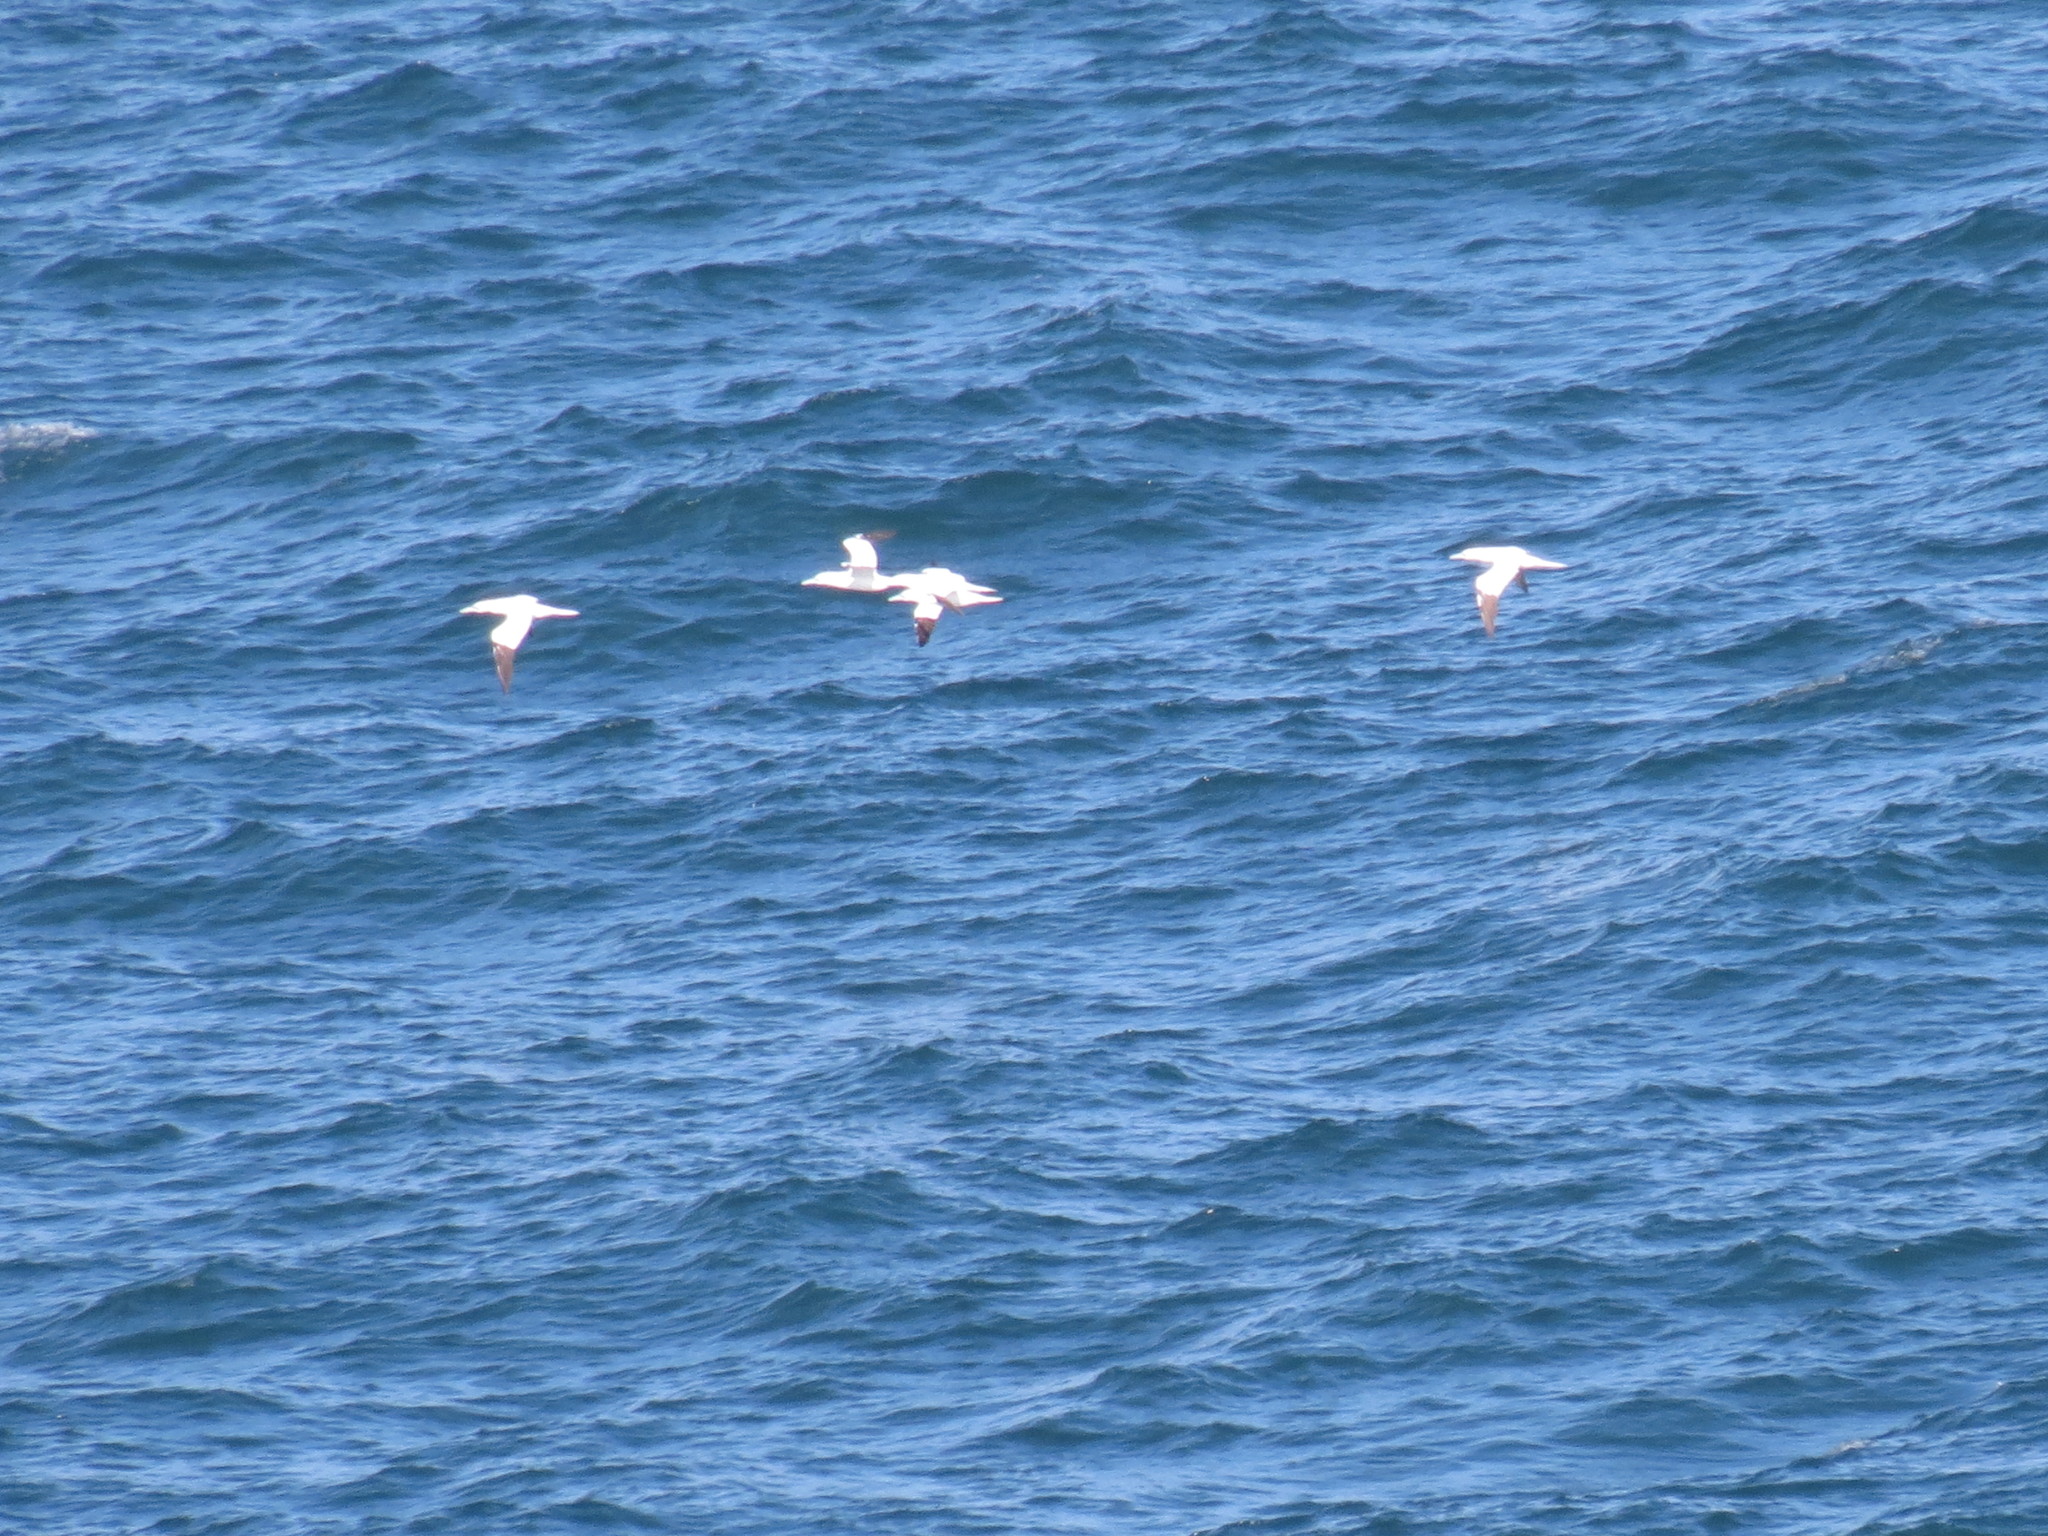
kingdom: Animalia
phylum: Chordata
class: Aves
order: Suliformes
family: Sulidae
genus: Morus
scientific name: Morus bassanus
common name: Northern gannet
